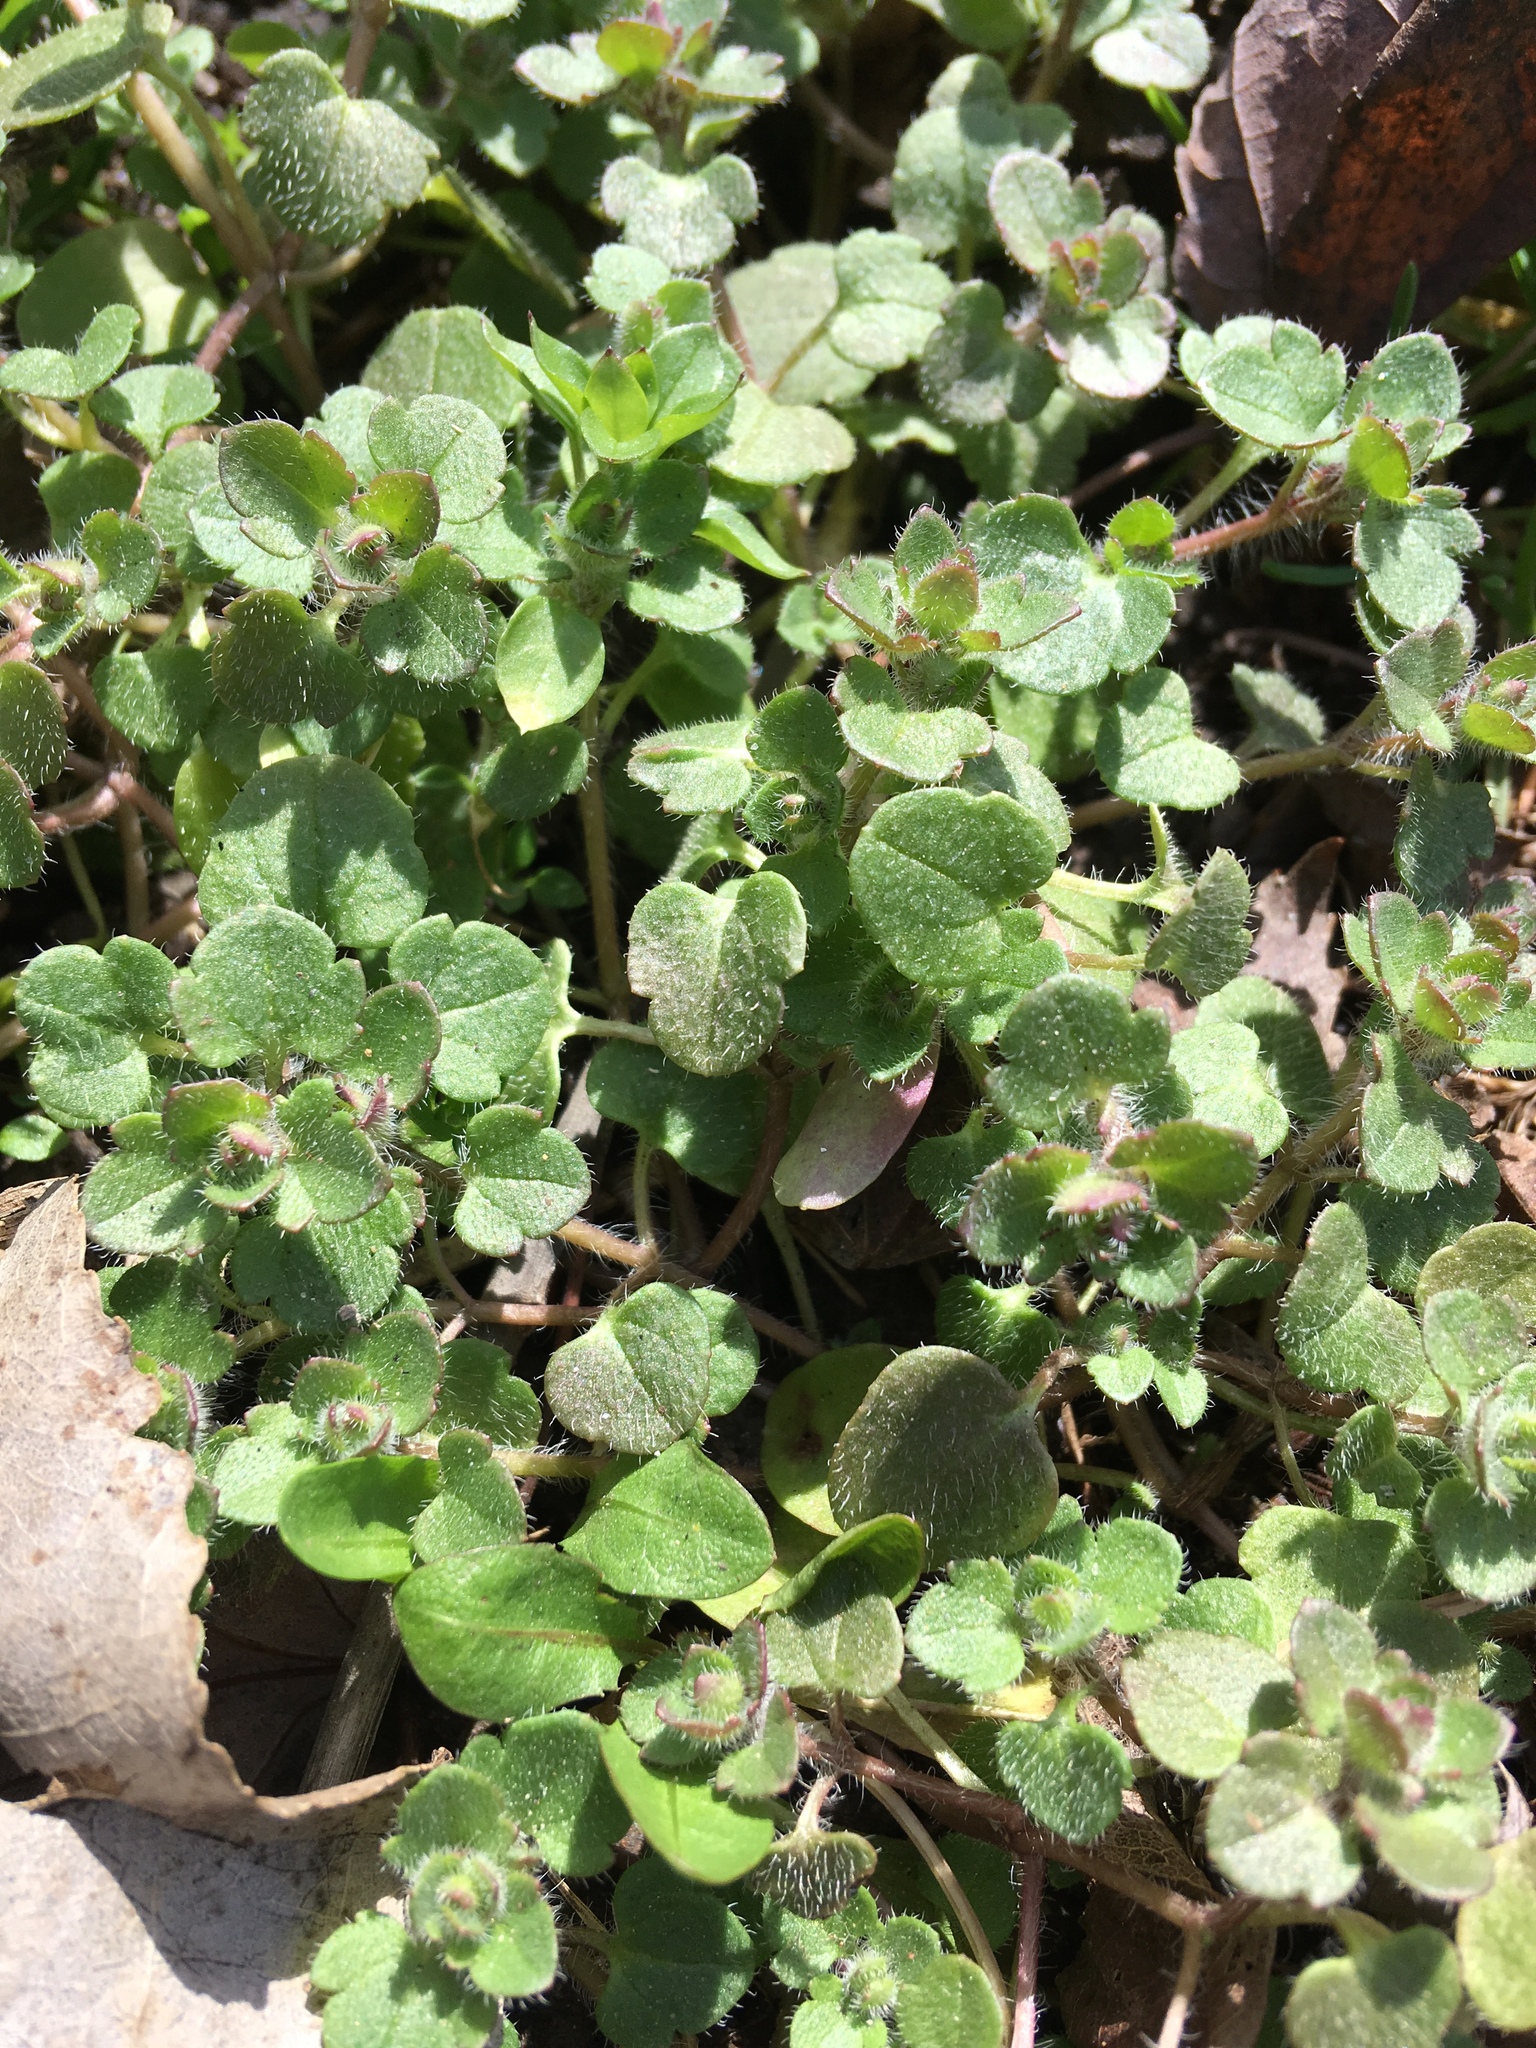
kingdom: Plantae
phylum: Tracheophyta
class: Magnoliopsida
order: Lamiales
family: Plantaginaceae
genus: Veronica
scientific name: Veronica hederifolia
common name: Ivy-leaved speedwell
